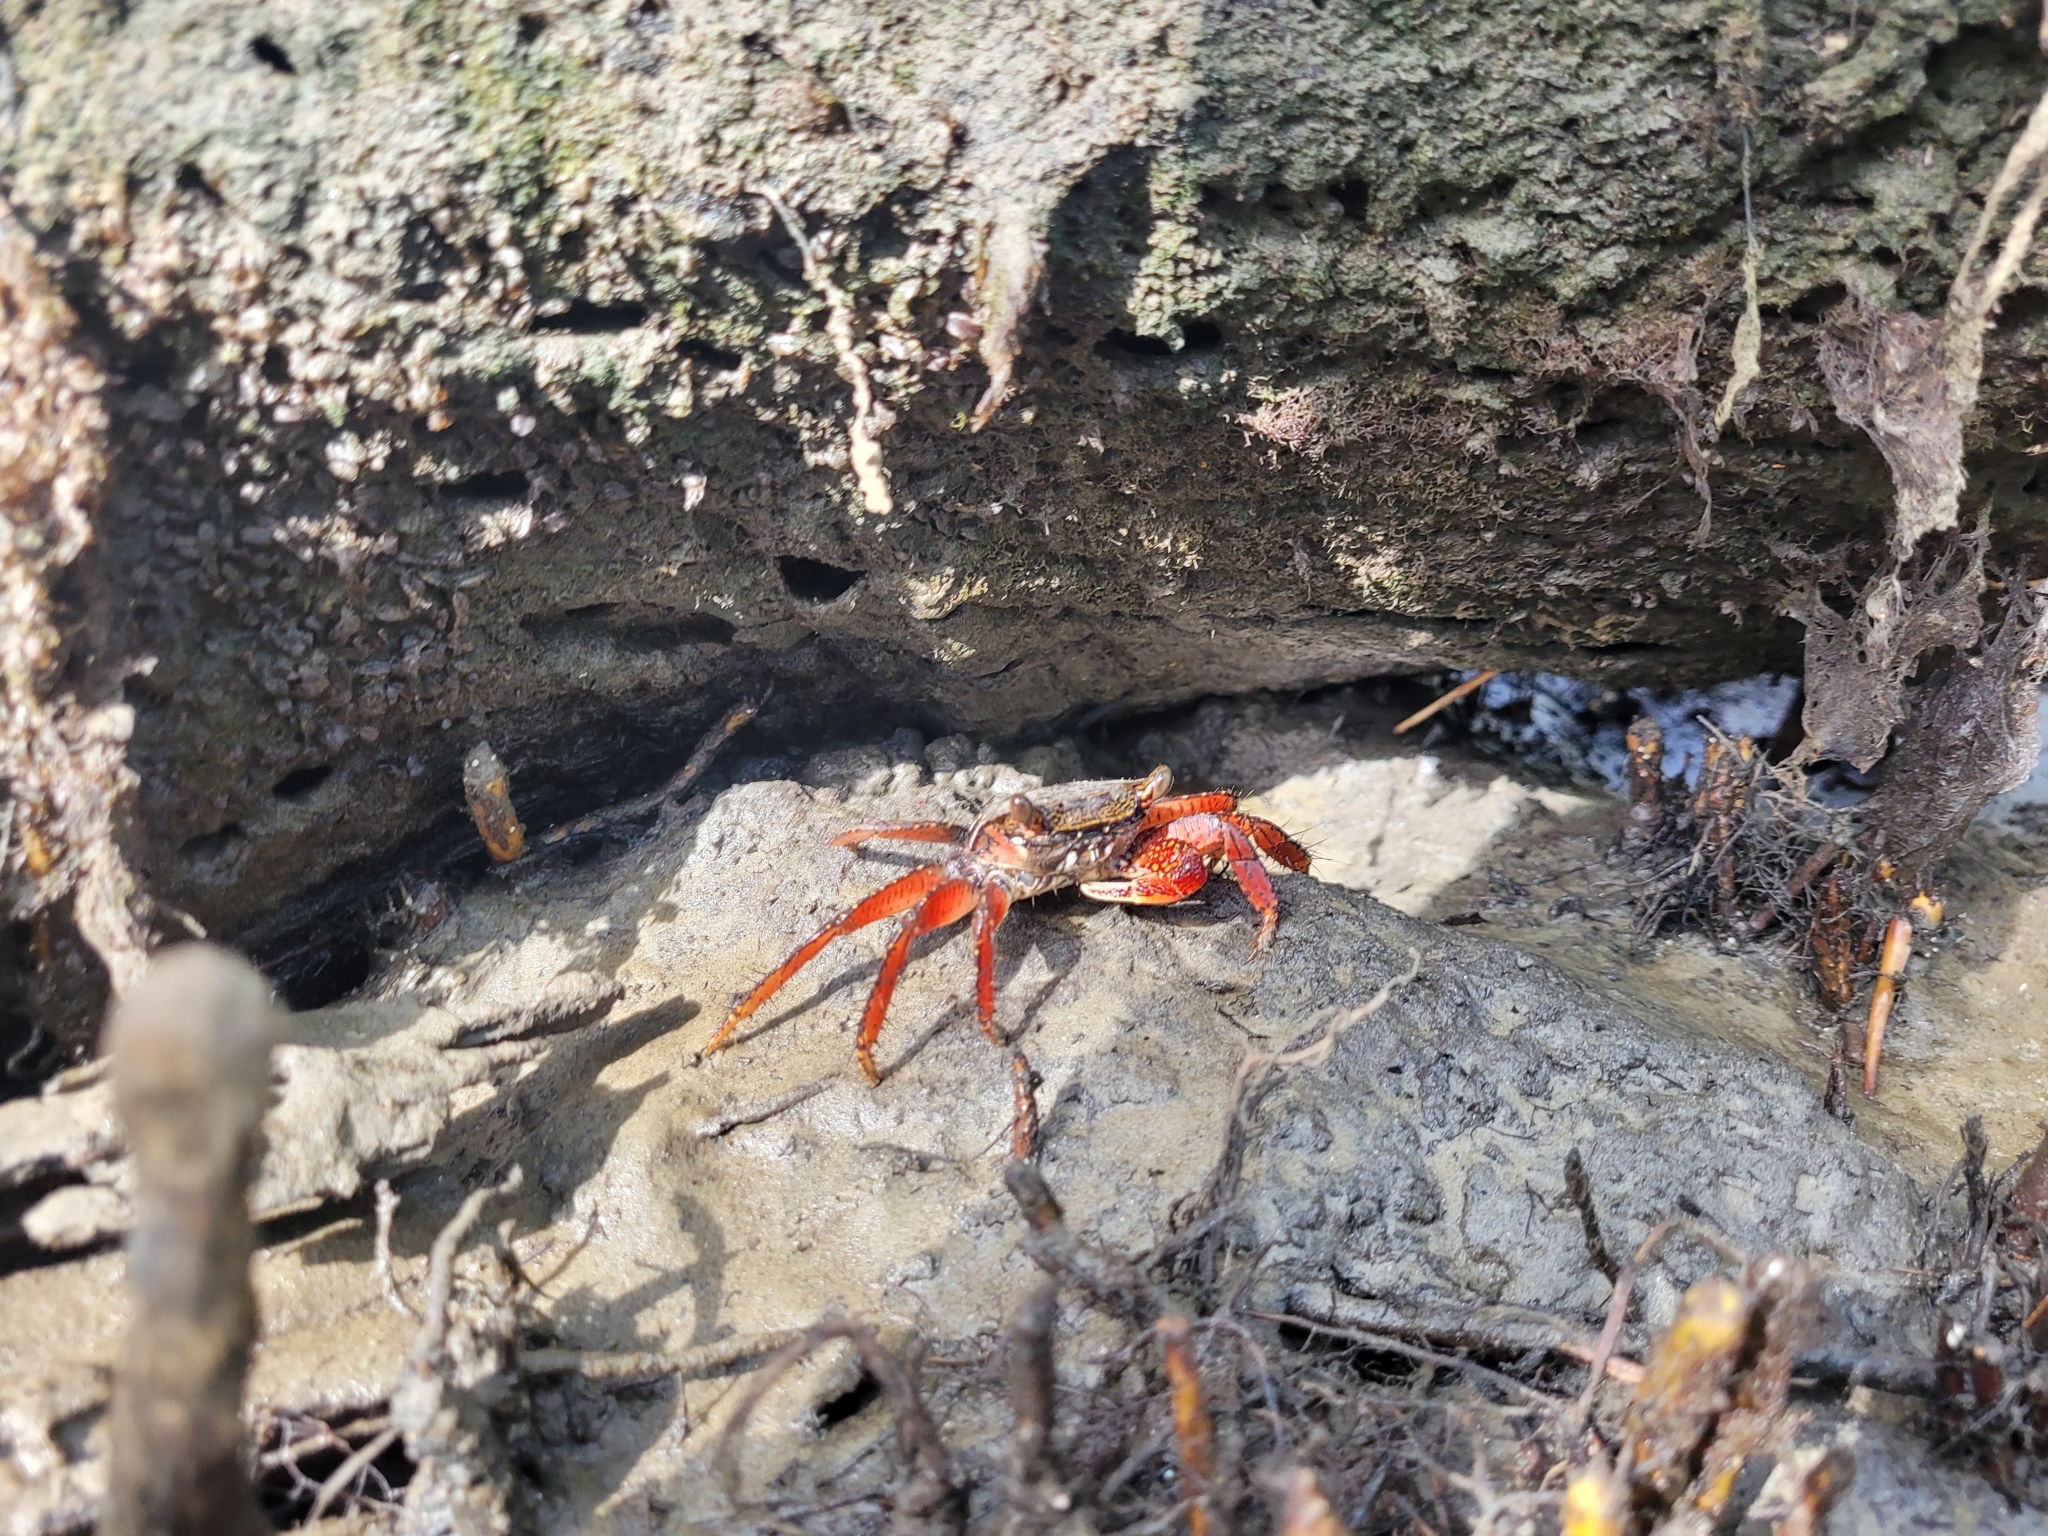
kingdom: Animalia
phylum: Arthropoda
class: Malacostraca
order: Decapoda
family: Grapsidae
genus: Goniopsis
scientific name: Goniopsis cruentata
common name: Mangrove crab
